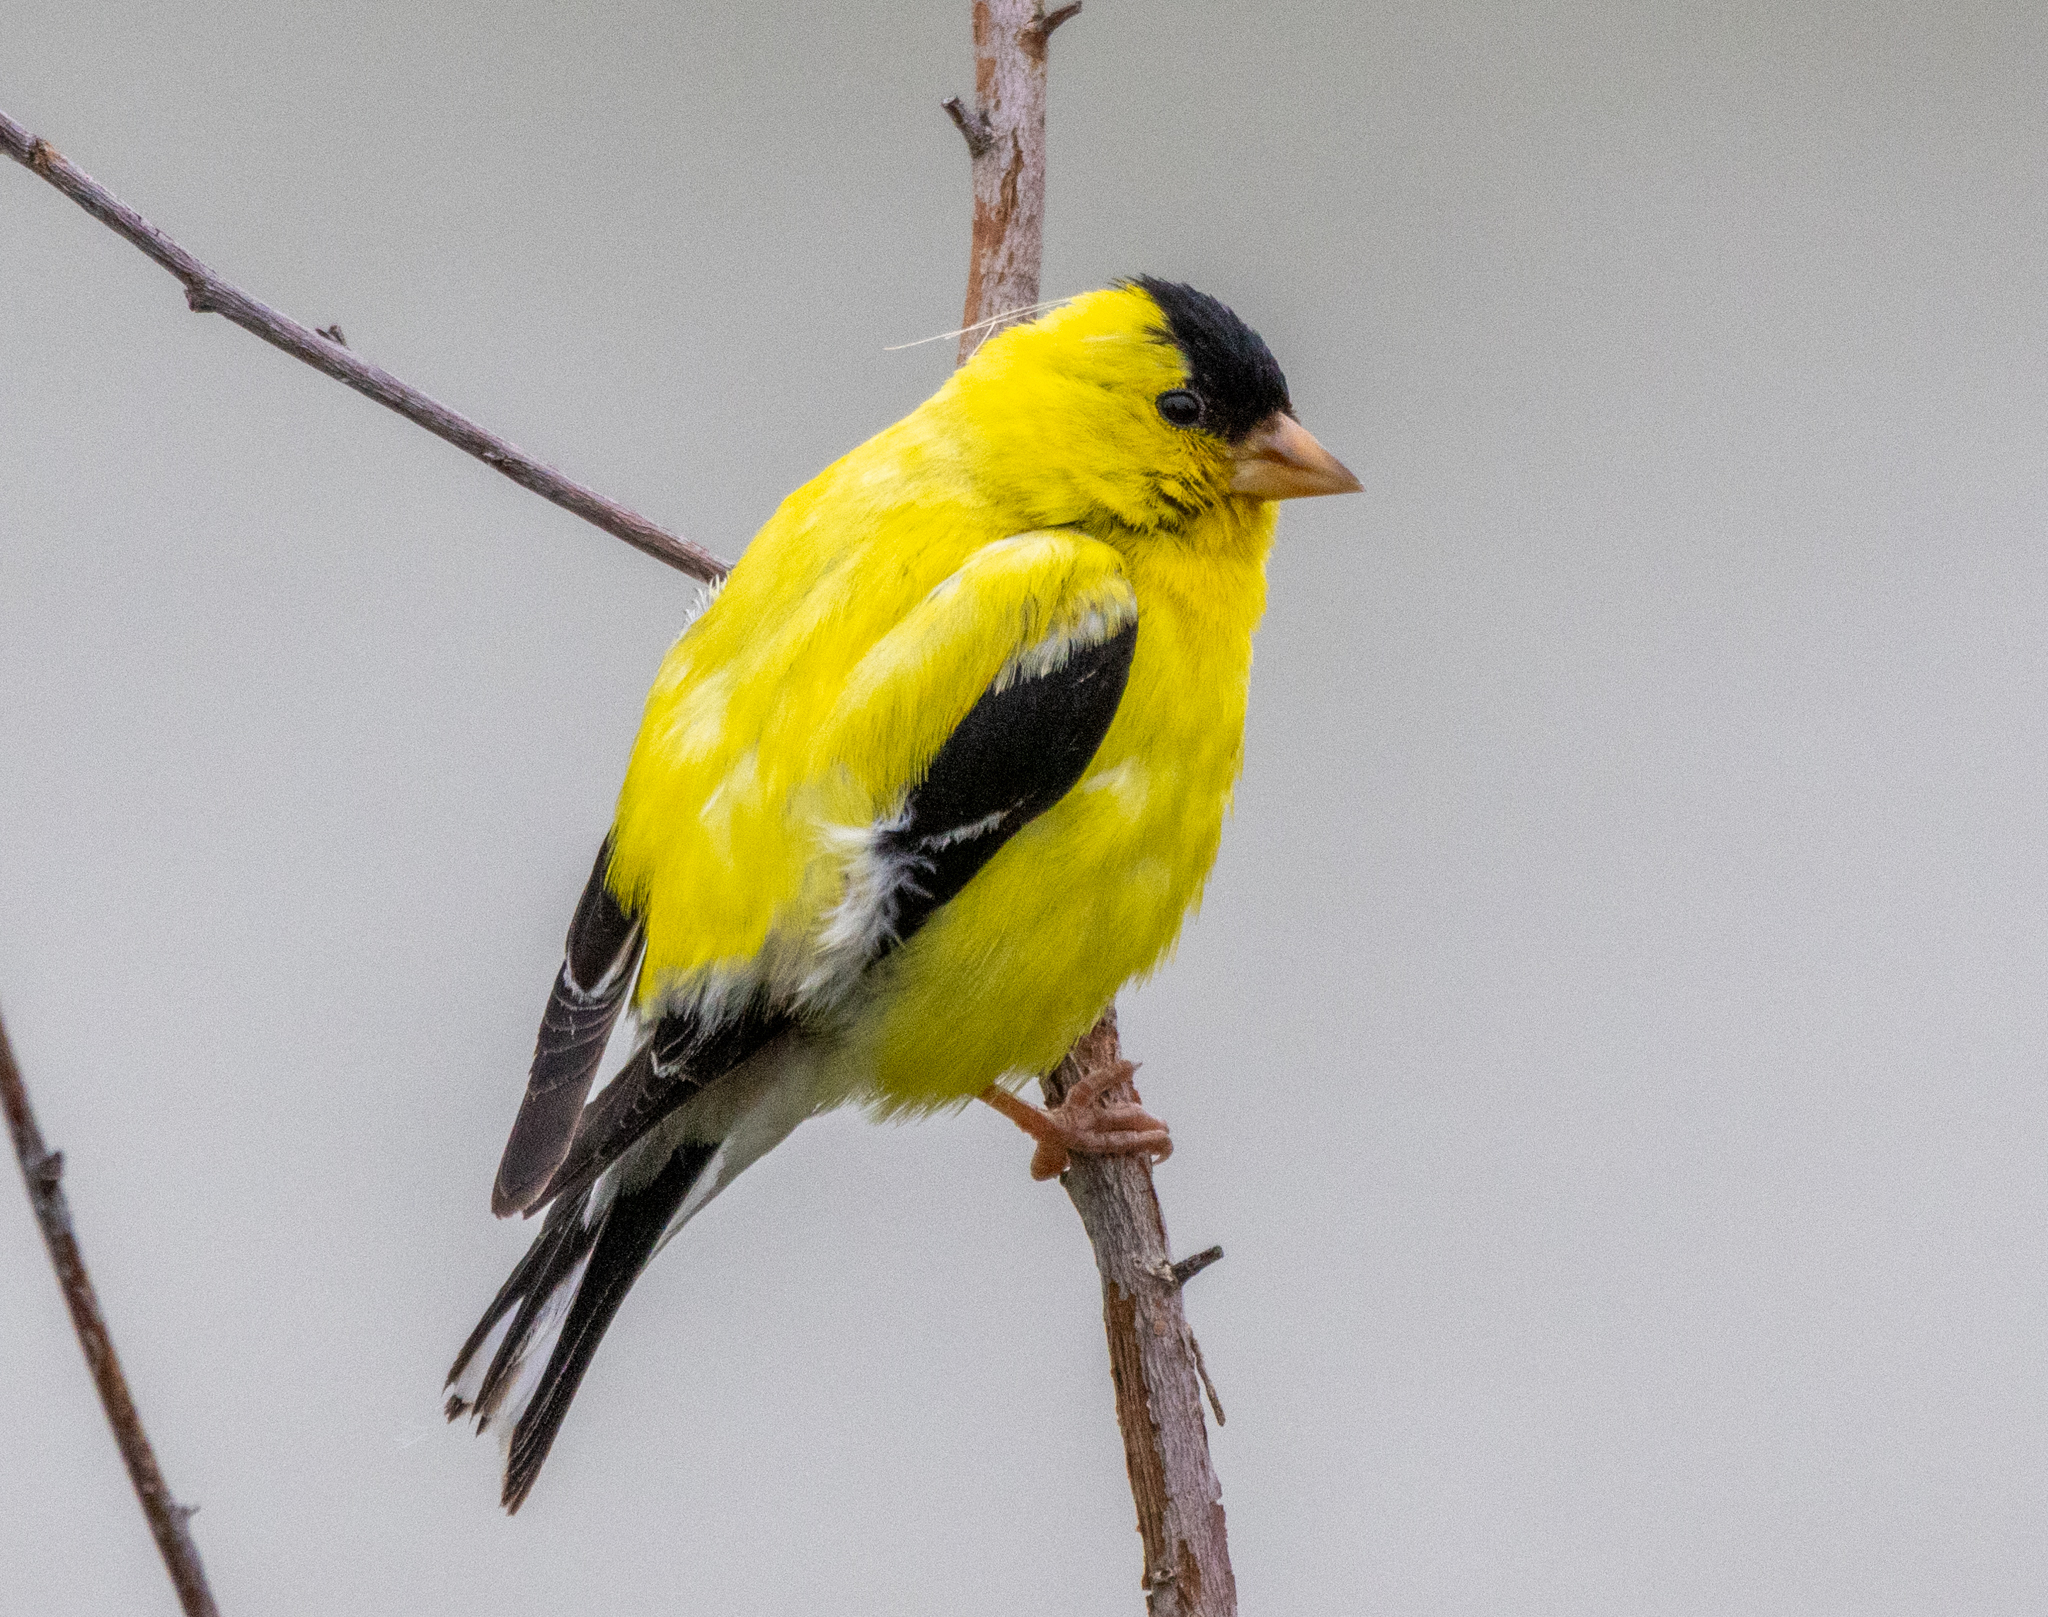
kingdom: Animalia
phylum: Chordata
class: Aves
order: Passeriformes
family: Fringillidae
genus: Spinus
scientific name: Spinus tristis
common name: American goldfinch
